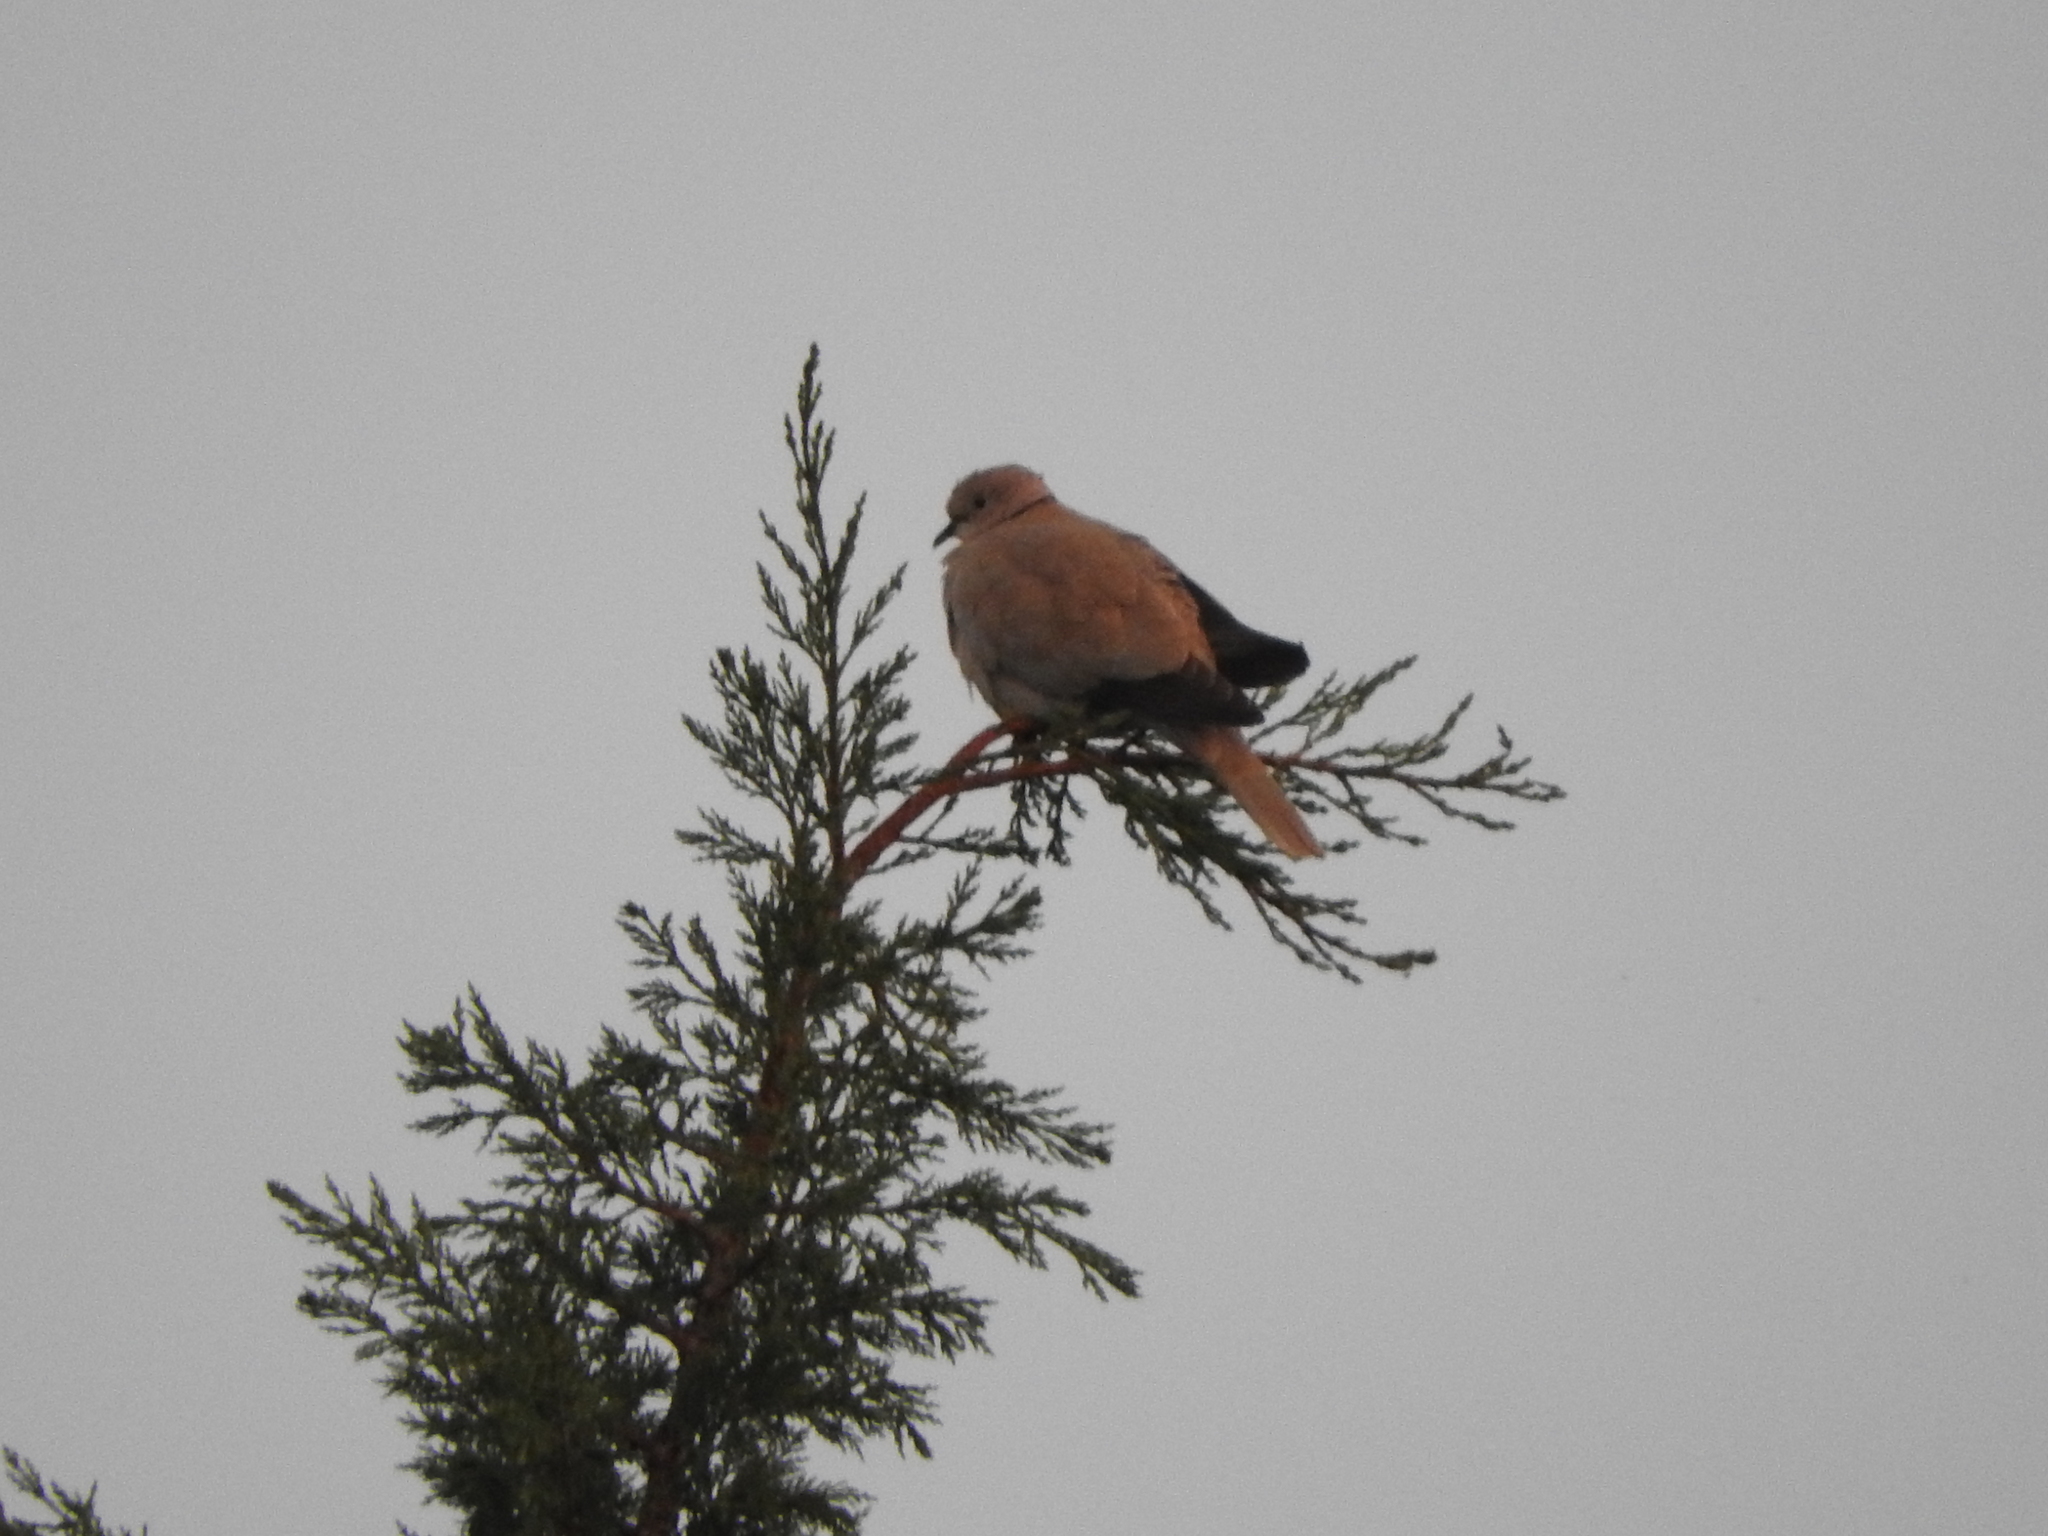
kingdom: Animalia
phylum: Chordata
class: Aves
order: Columbiformes
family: Columbidae
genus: Streptopelia
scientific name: Streptopelia decaocto
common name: Eurasian collared dove
